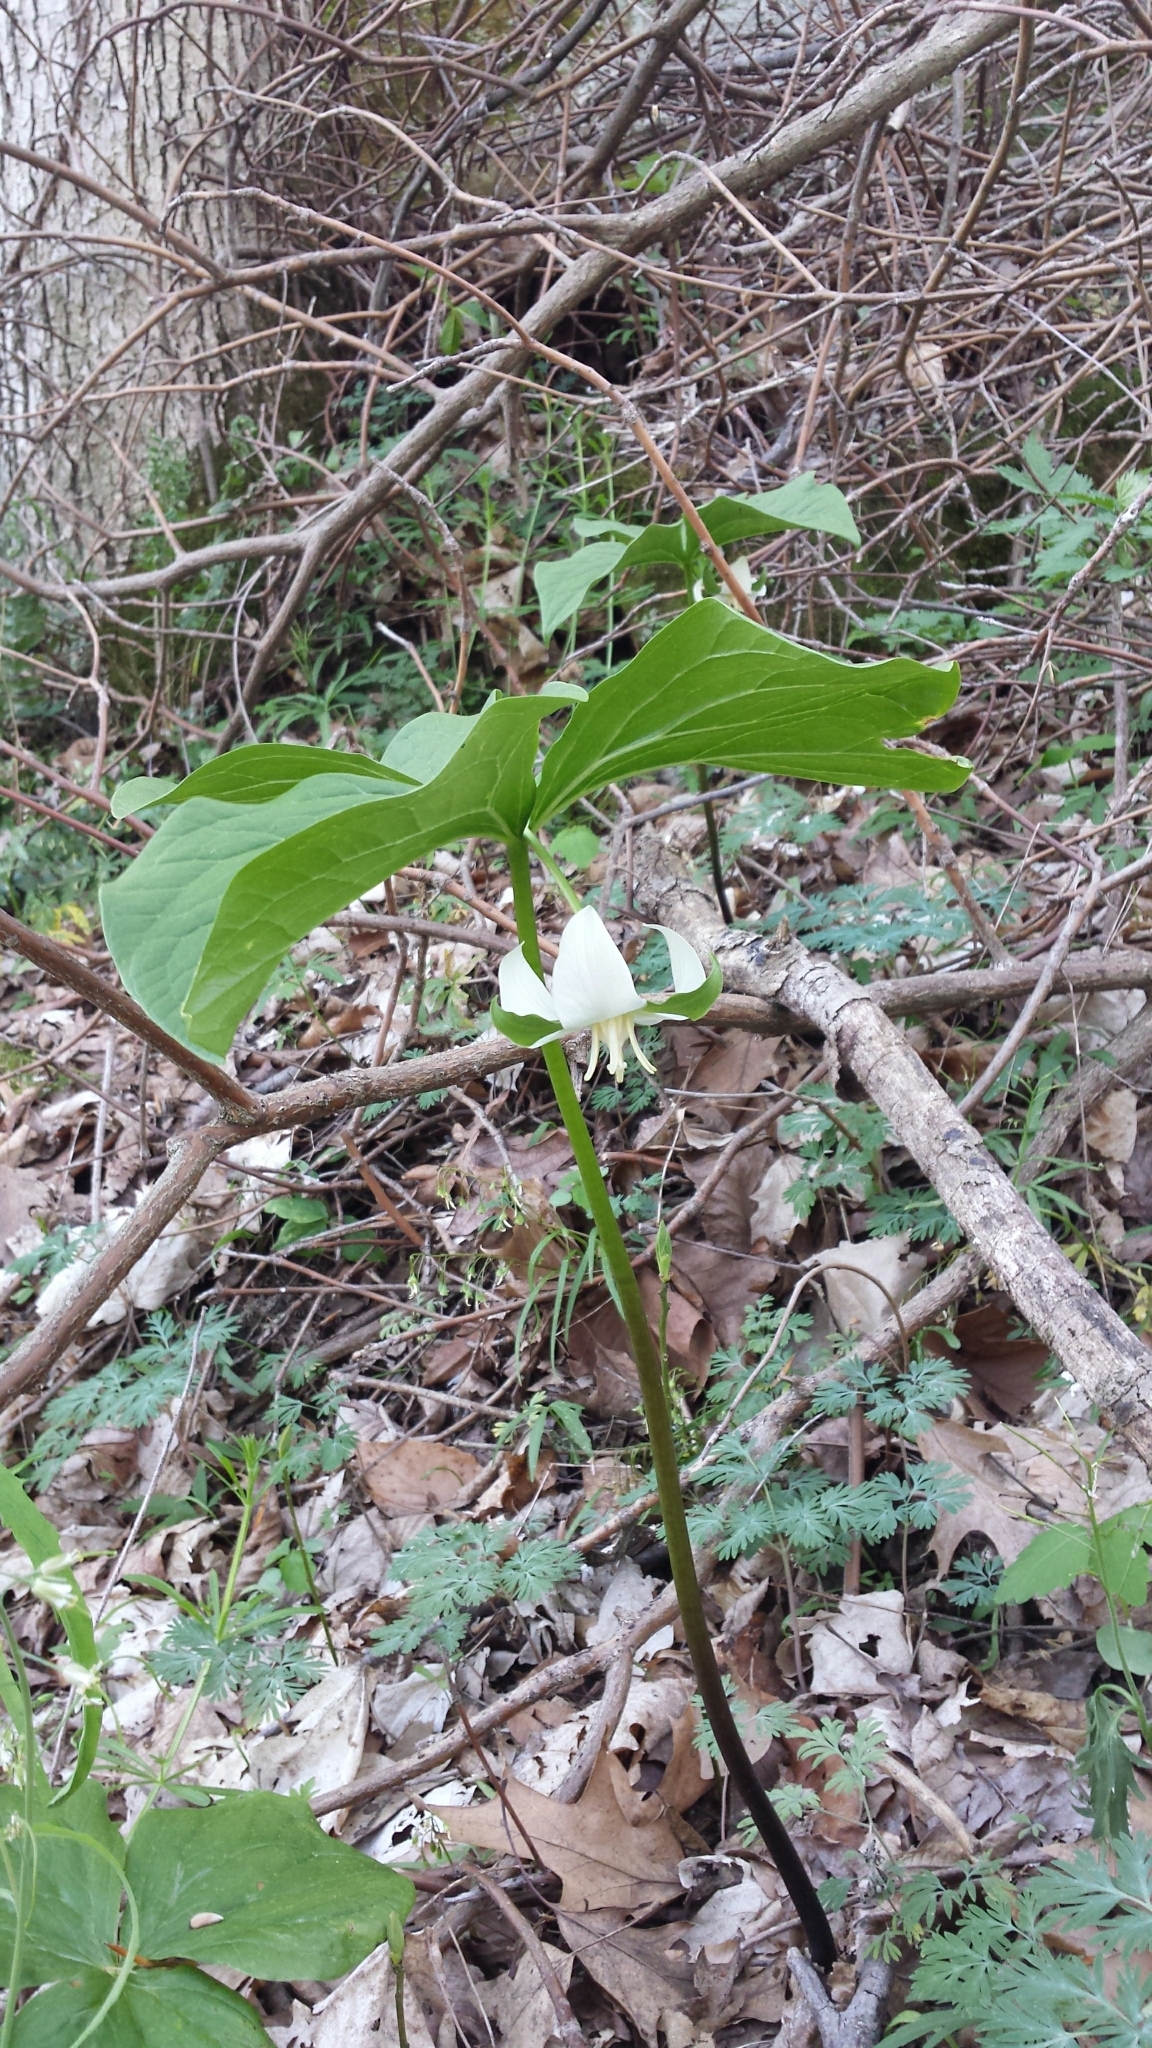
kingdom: Plantae
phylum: Tracheophyta
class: Liliopsida
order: Liliales
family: Melanthiaceae
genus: Trillium
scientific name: Trillium flexipes
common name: Drooping trillium
